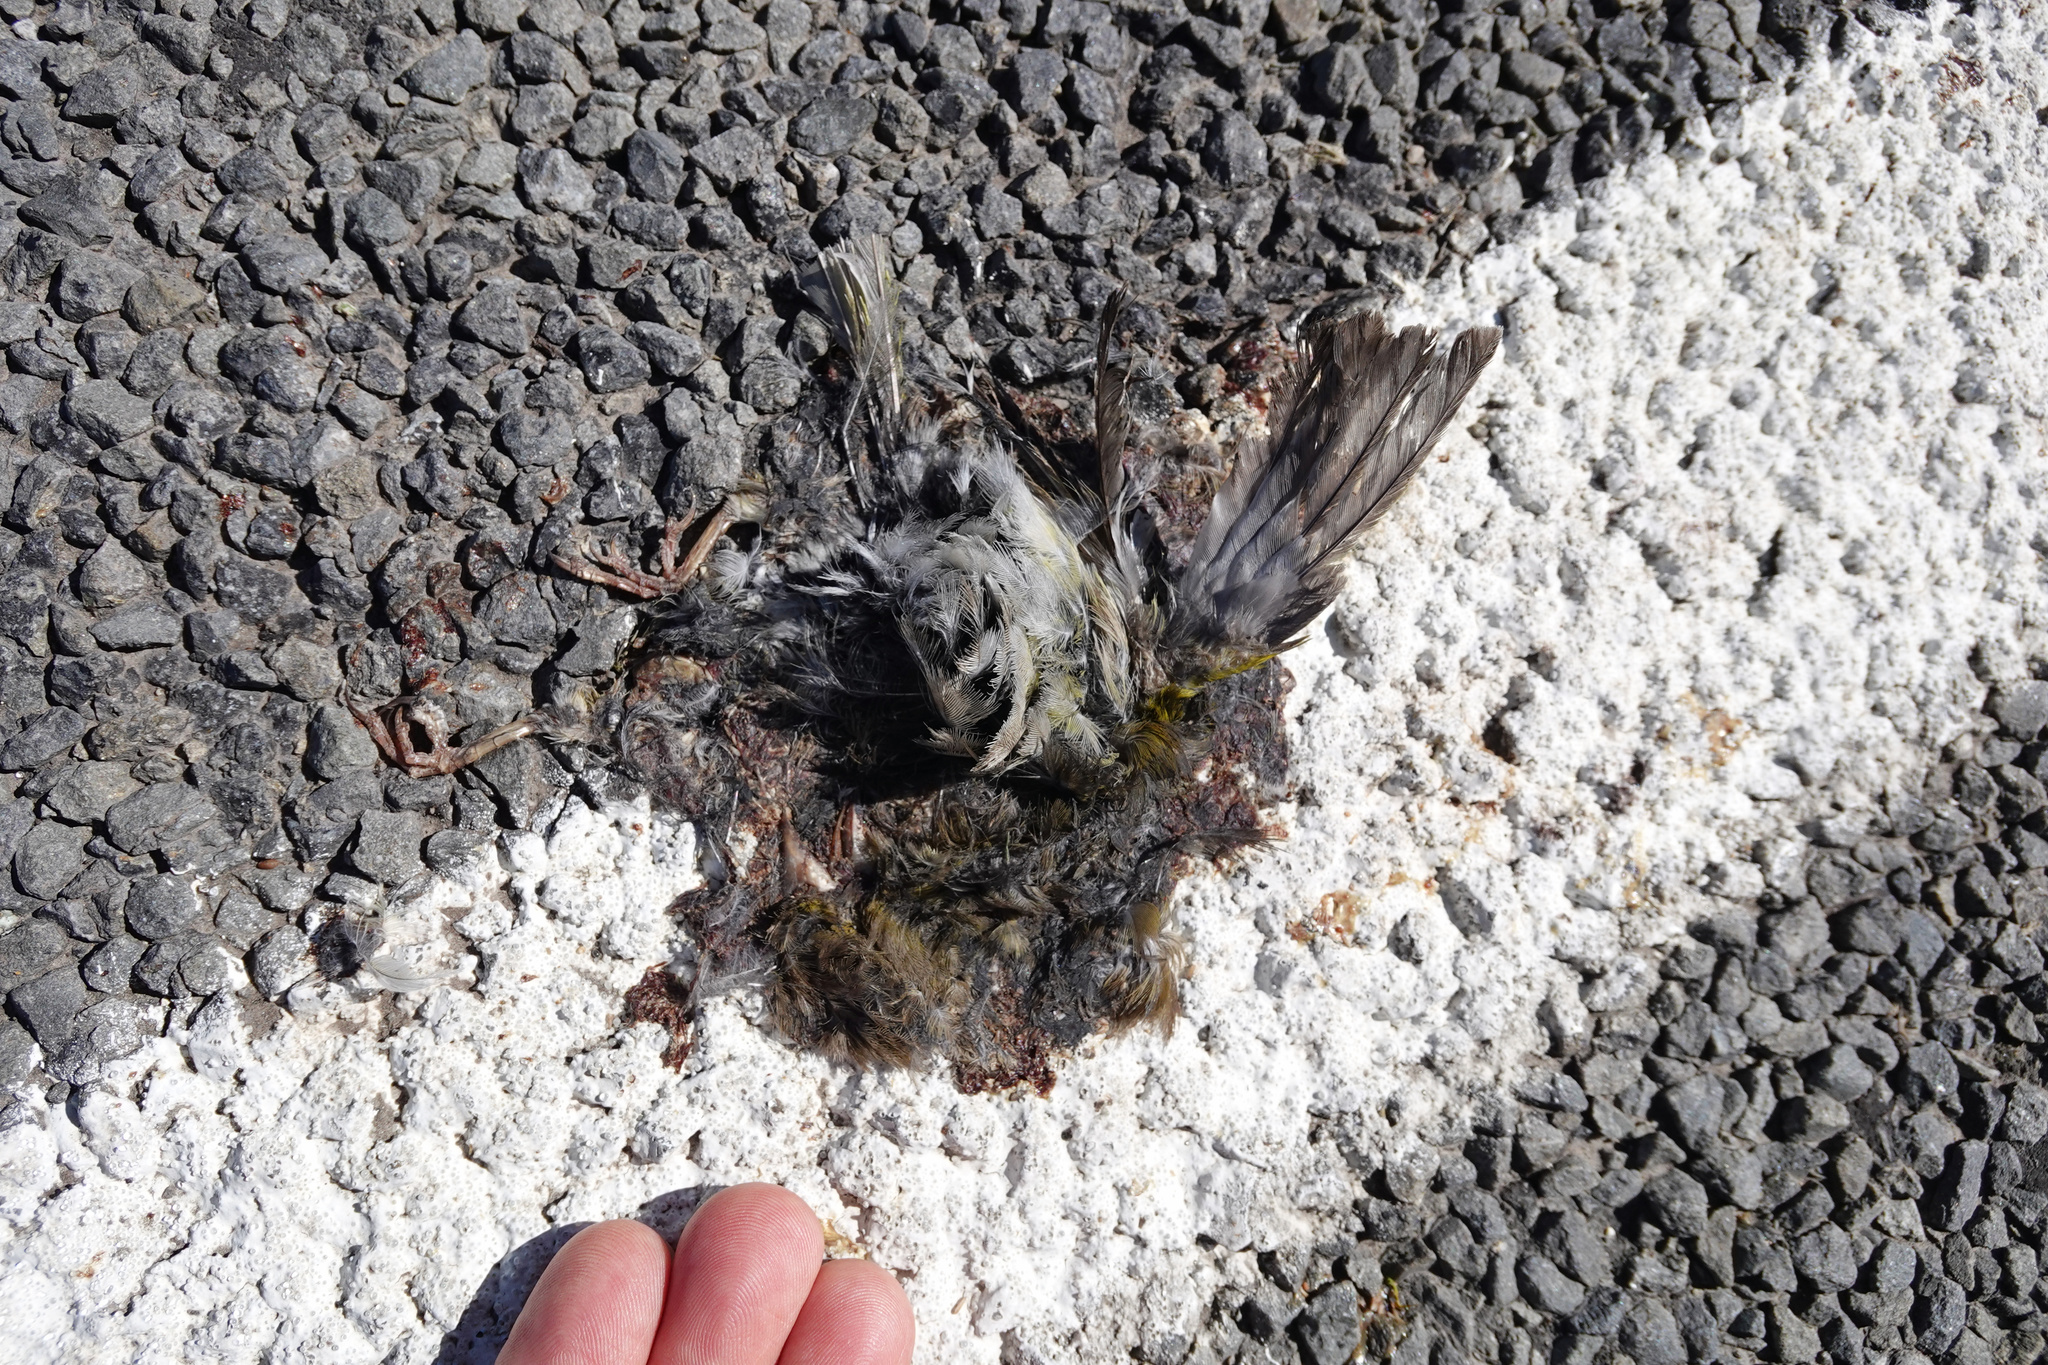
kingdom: Plantae
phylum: Tracheophyta
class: Liliopsida
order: Poales
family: Poaceae
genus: Chloris
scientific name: Chloris chloris
